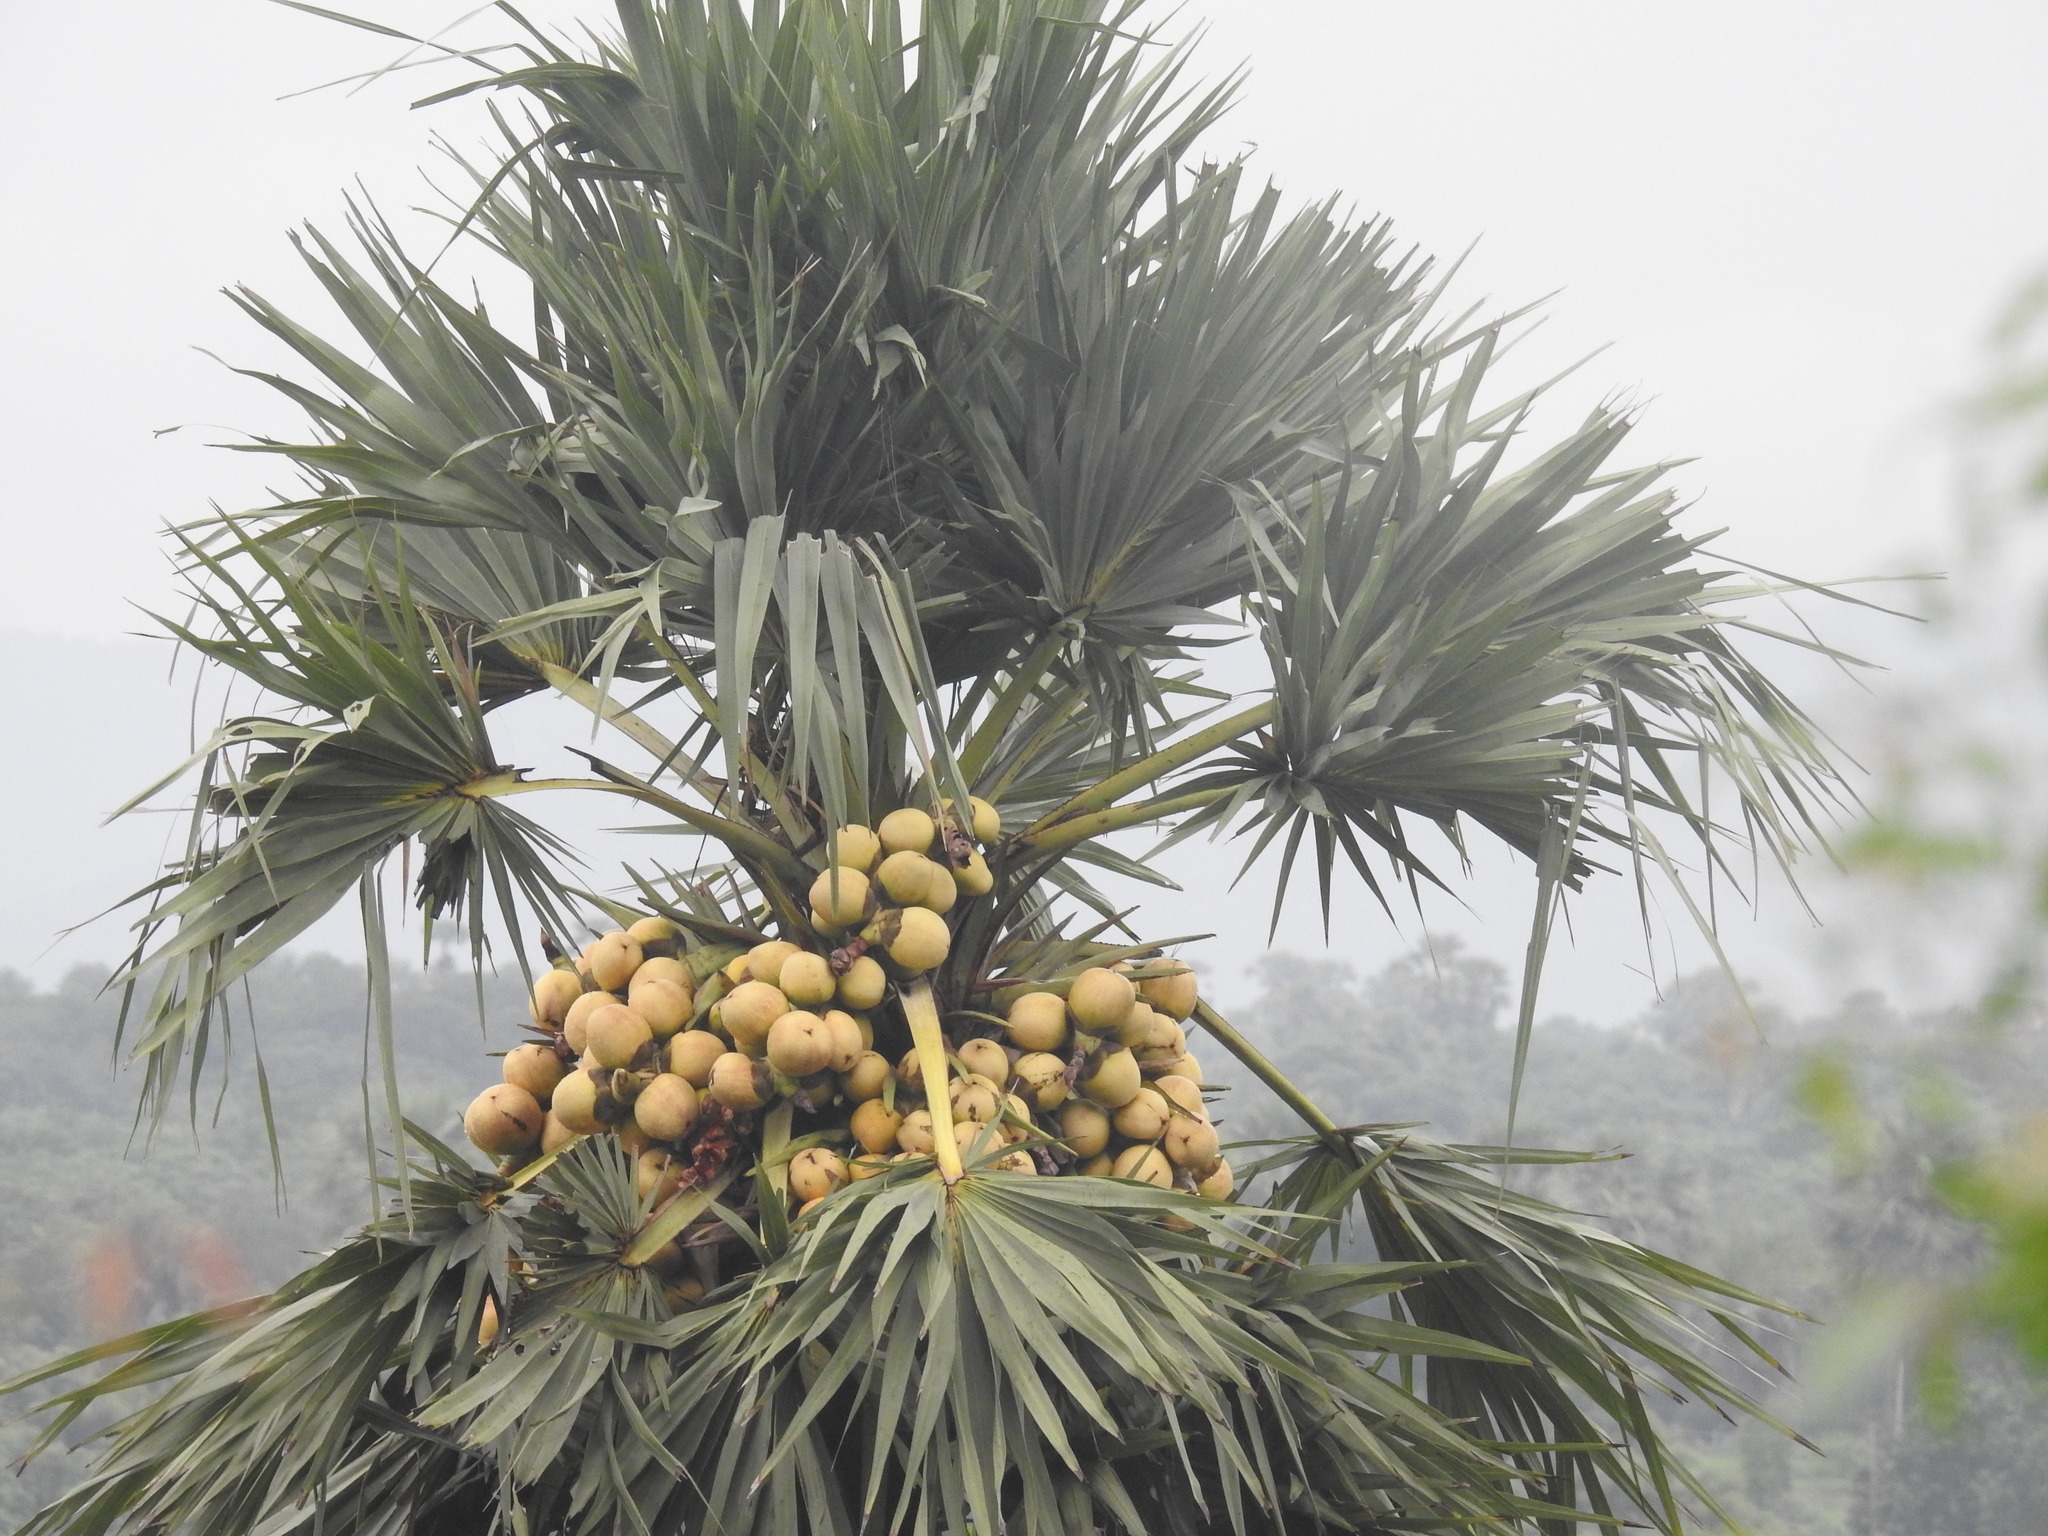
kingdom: Plantae
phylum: Tracheophyta
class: Liliopsida
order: Arecales
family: Arecaceae
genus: Borassus
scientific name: Borassus flabellifer
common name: Palmyra palm
